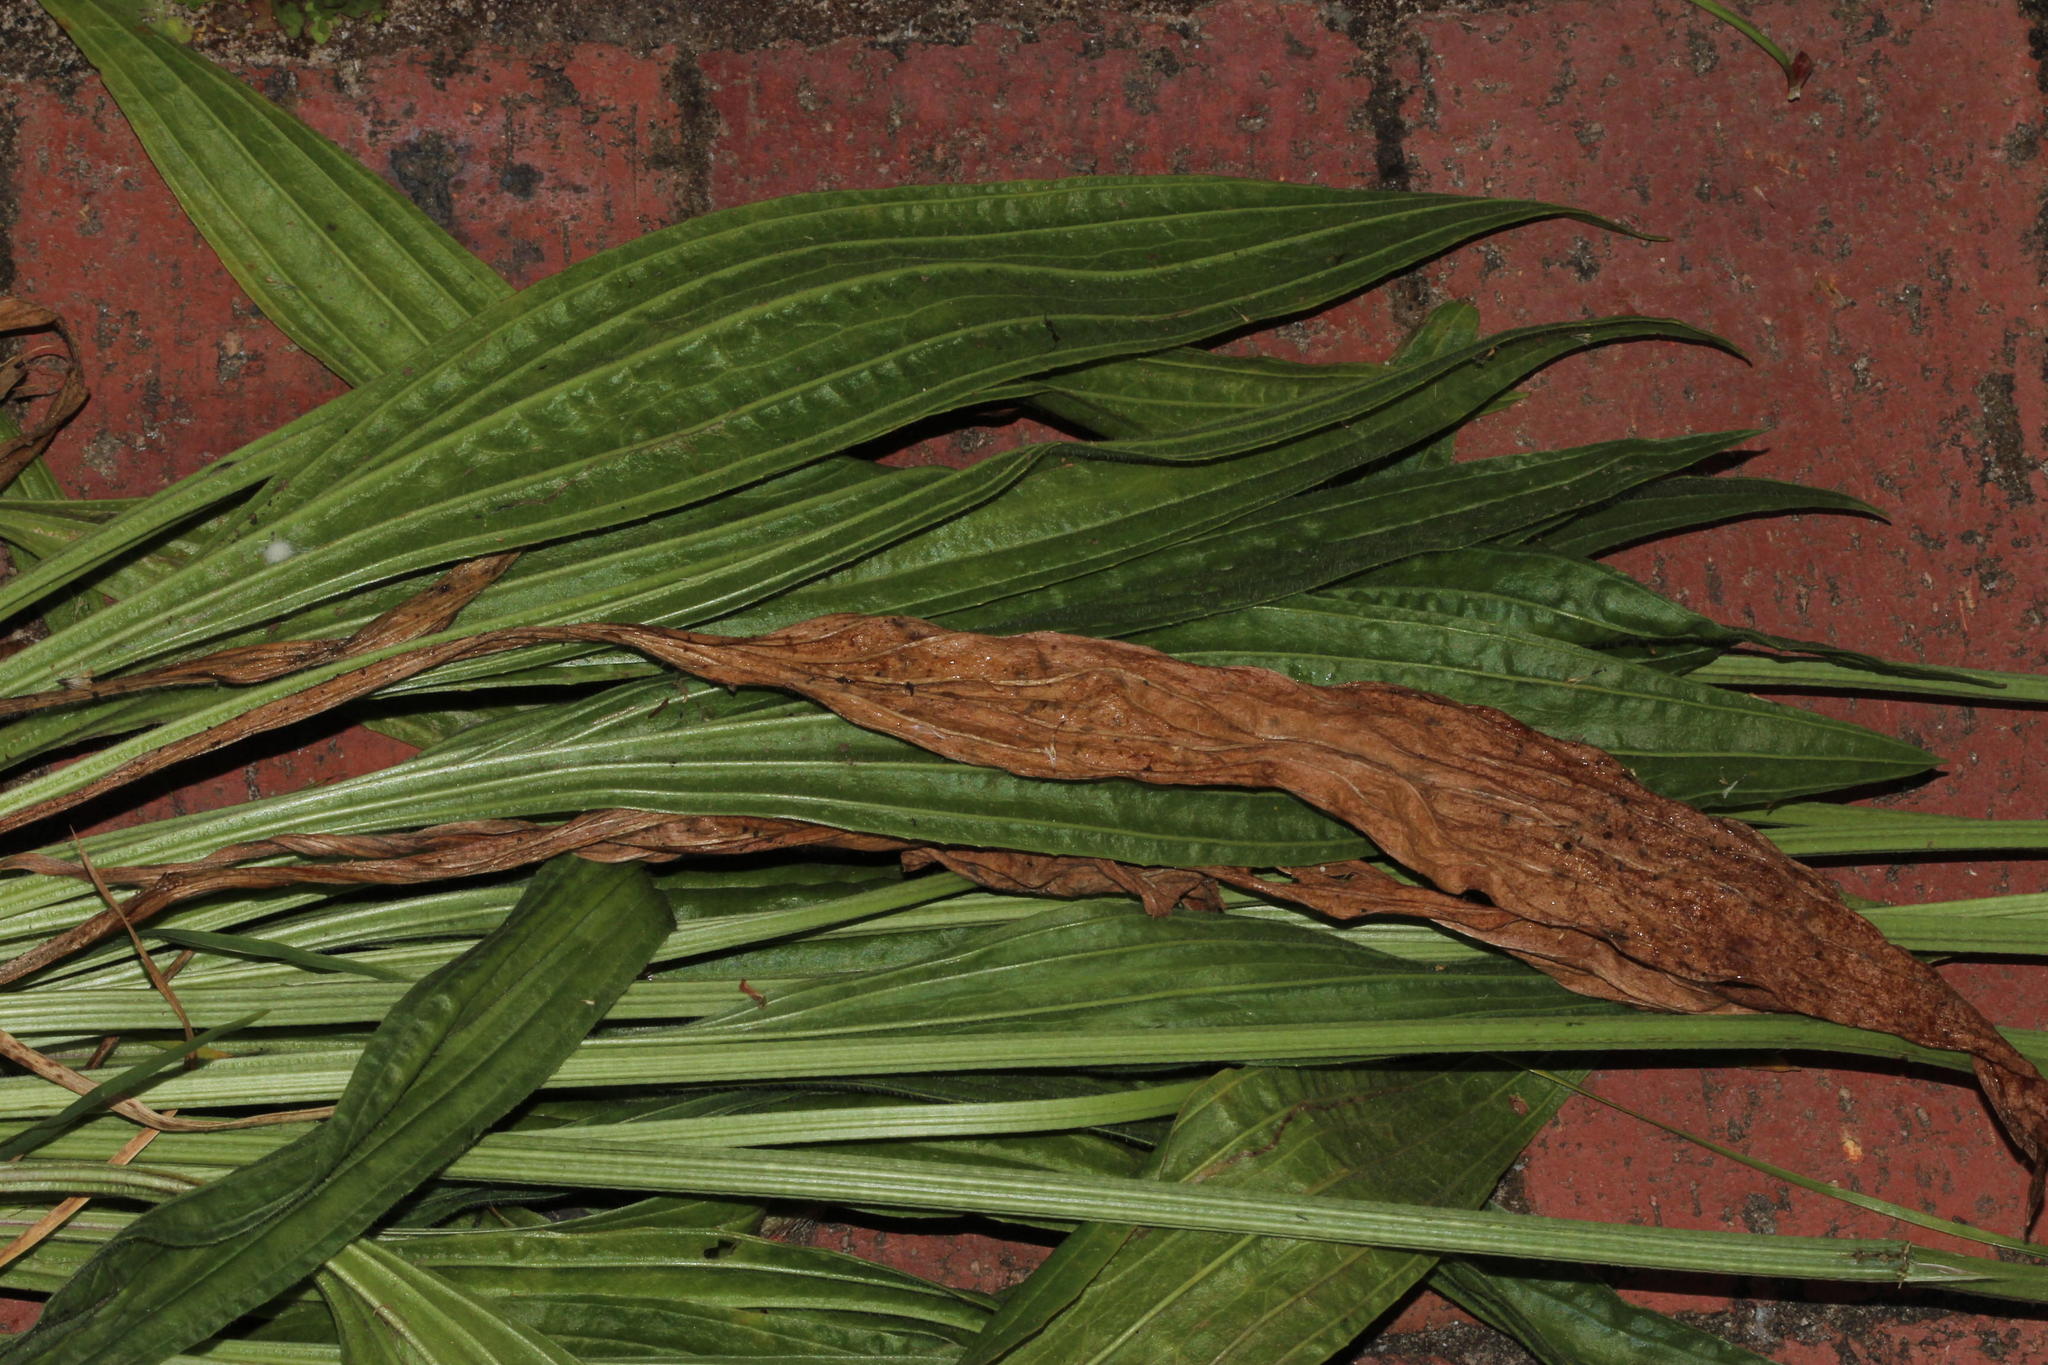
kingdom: Plantae
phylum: Tracheophyta
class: Magnoliopsida
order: Lamiales
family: Plantaginaceae
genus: Plantago
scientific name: Plantago lanceolata
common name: Ribwort plantain
